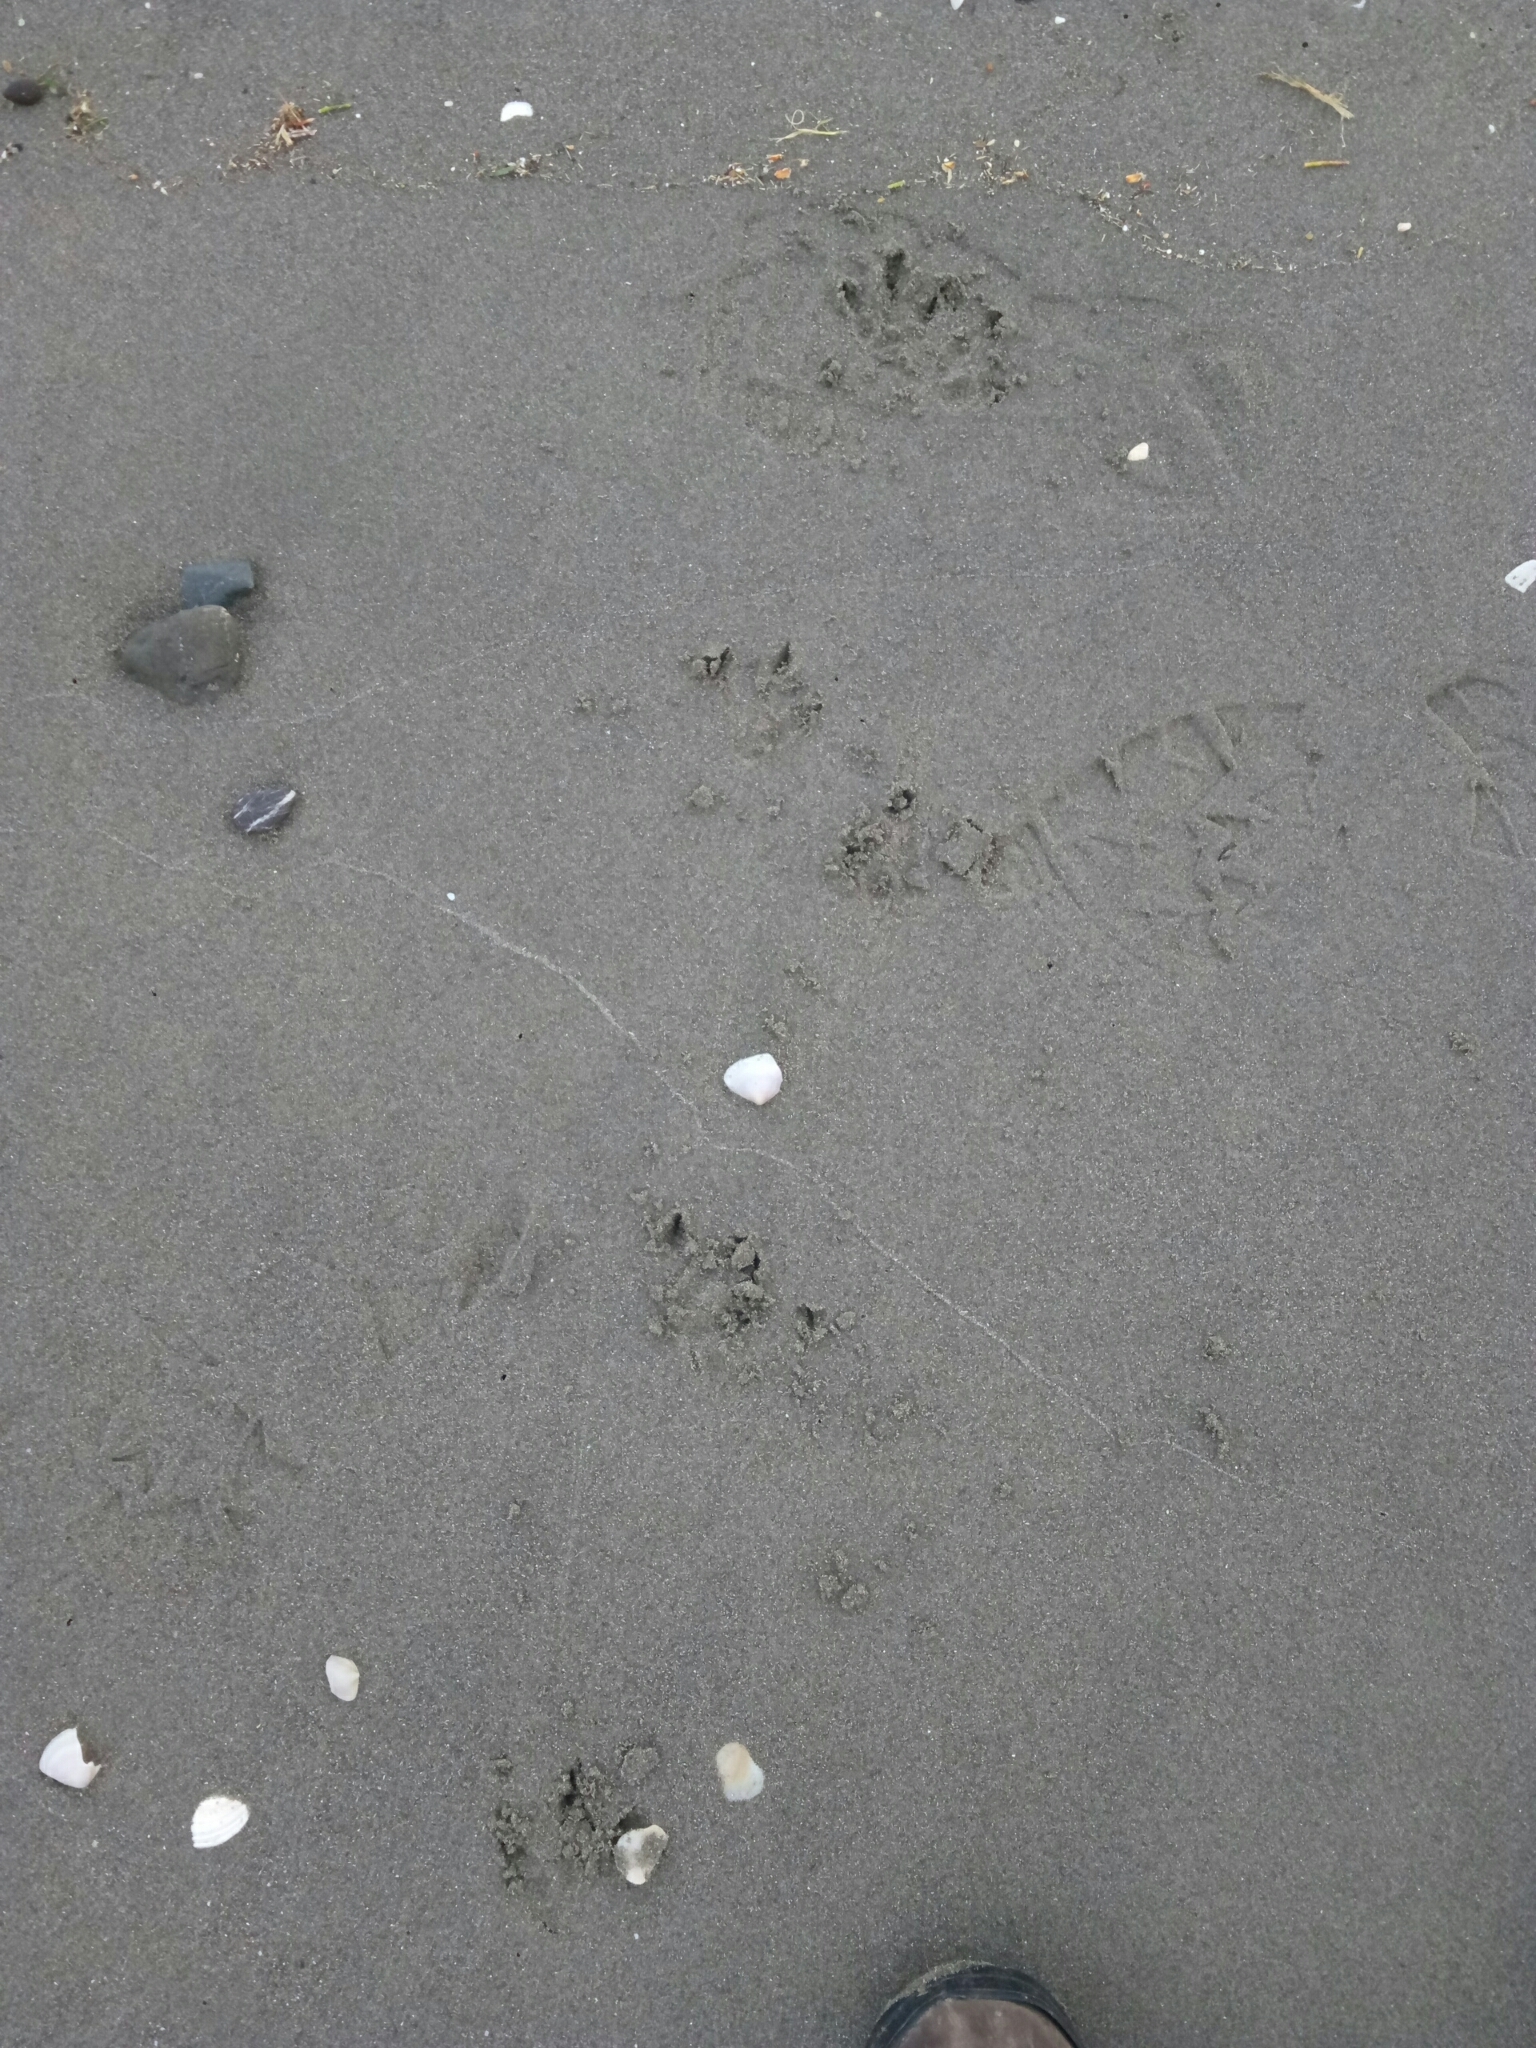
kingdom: Animalia
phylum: Chordata
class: Aves
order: Sphenisciformes
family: Spheniscidae
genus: Eudyptula
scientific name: Eudyptula minor
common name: Little penguin
